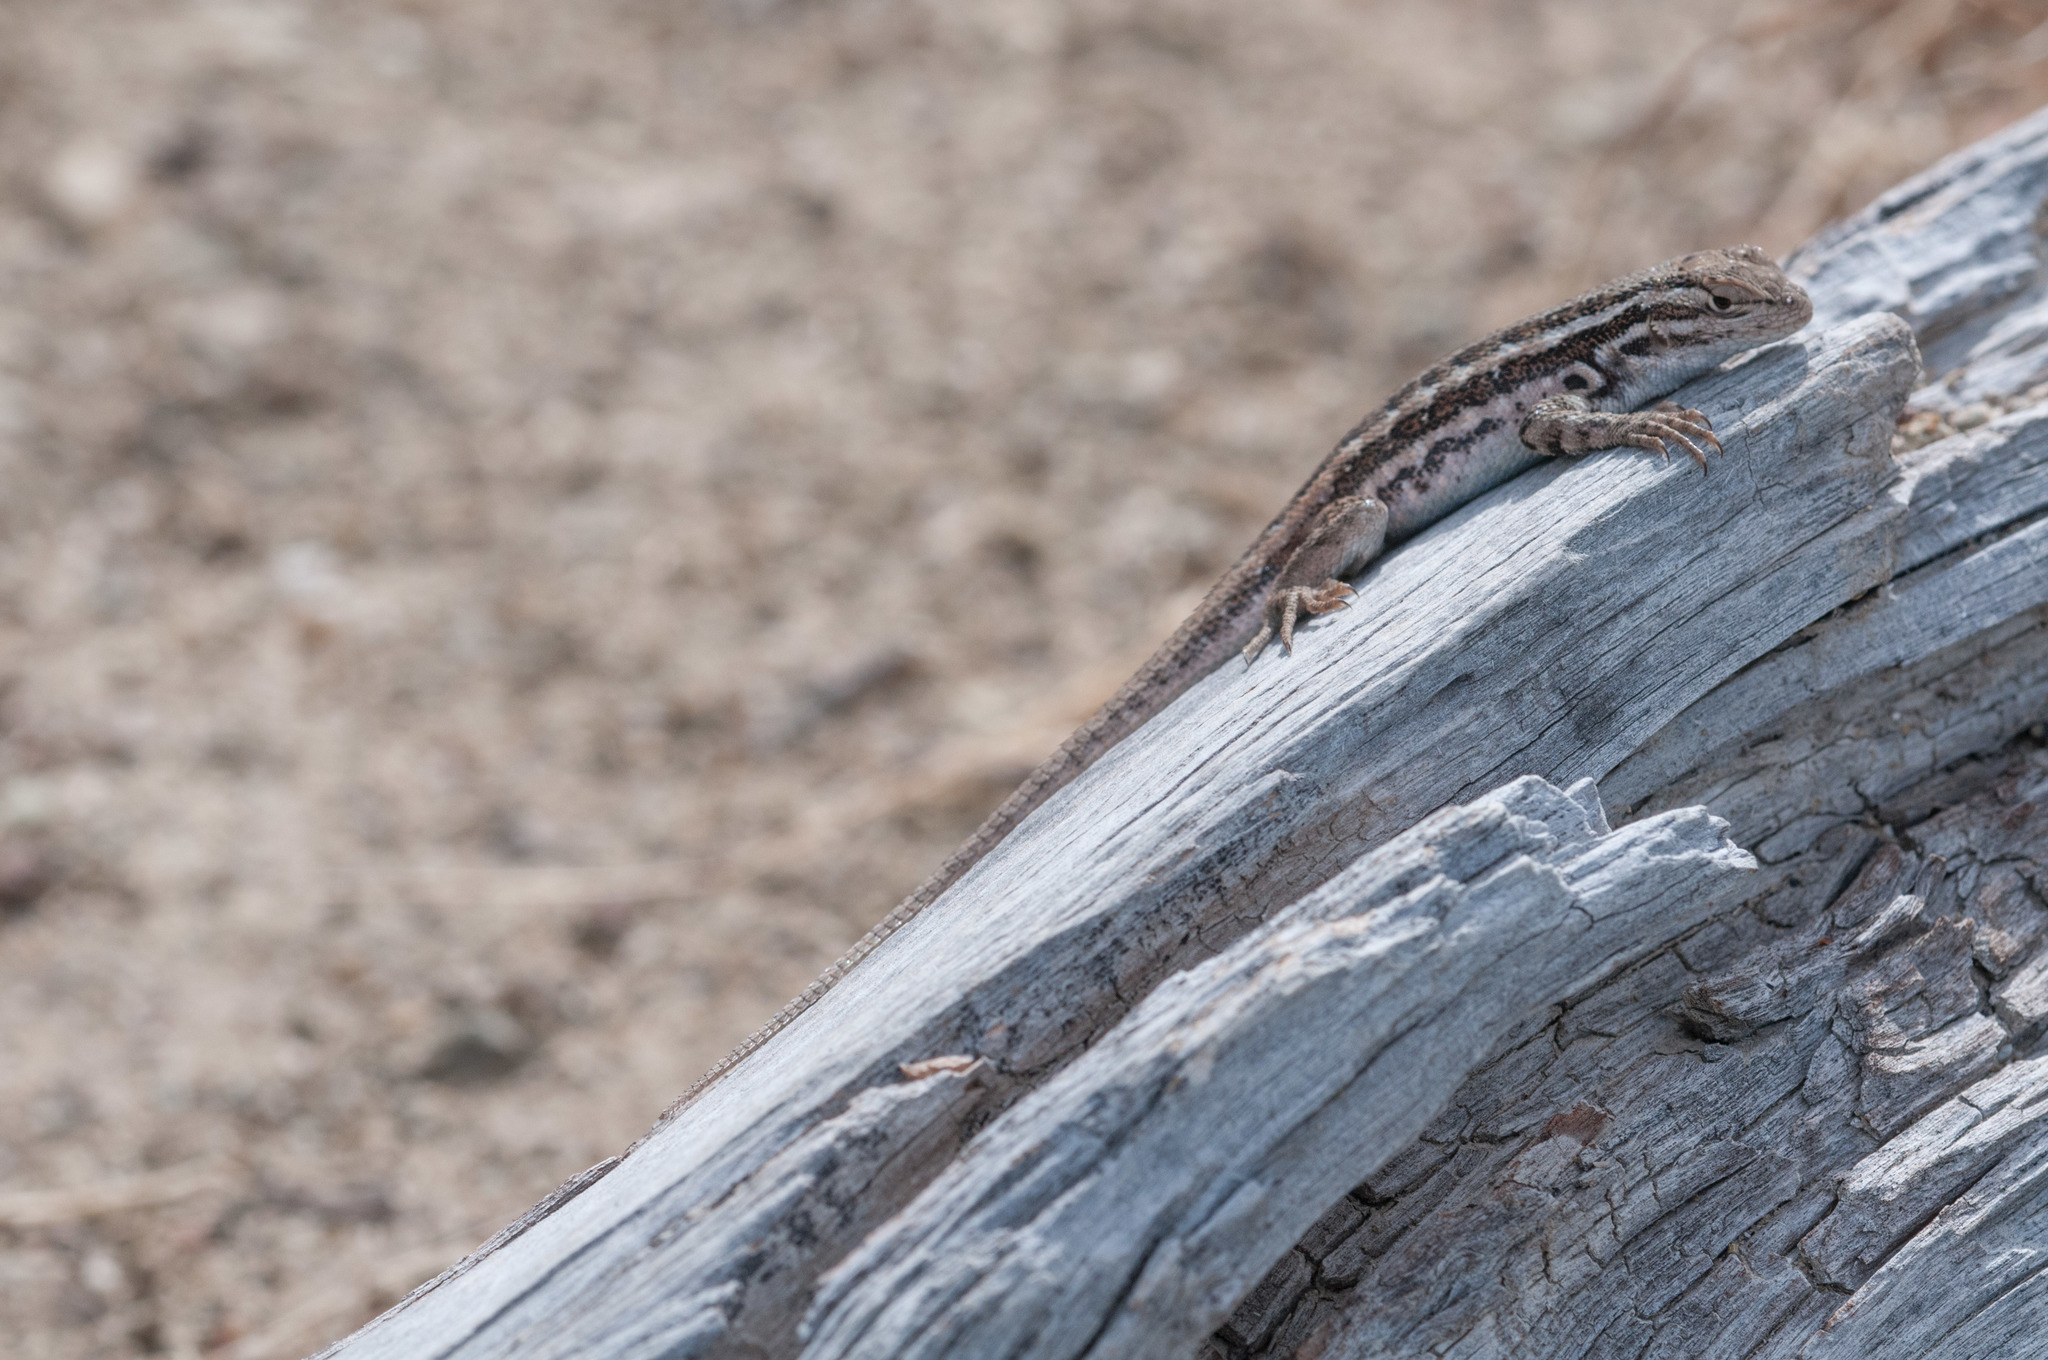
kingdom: Animalia
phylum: Chordata
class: Squamata
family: Phrynosomatidae
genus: Sceloporus
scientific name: Sceloporus graciosus
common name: Sagebrush lizard
